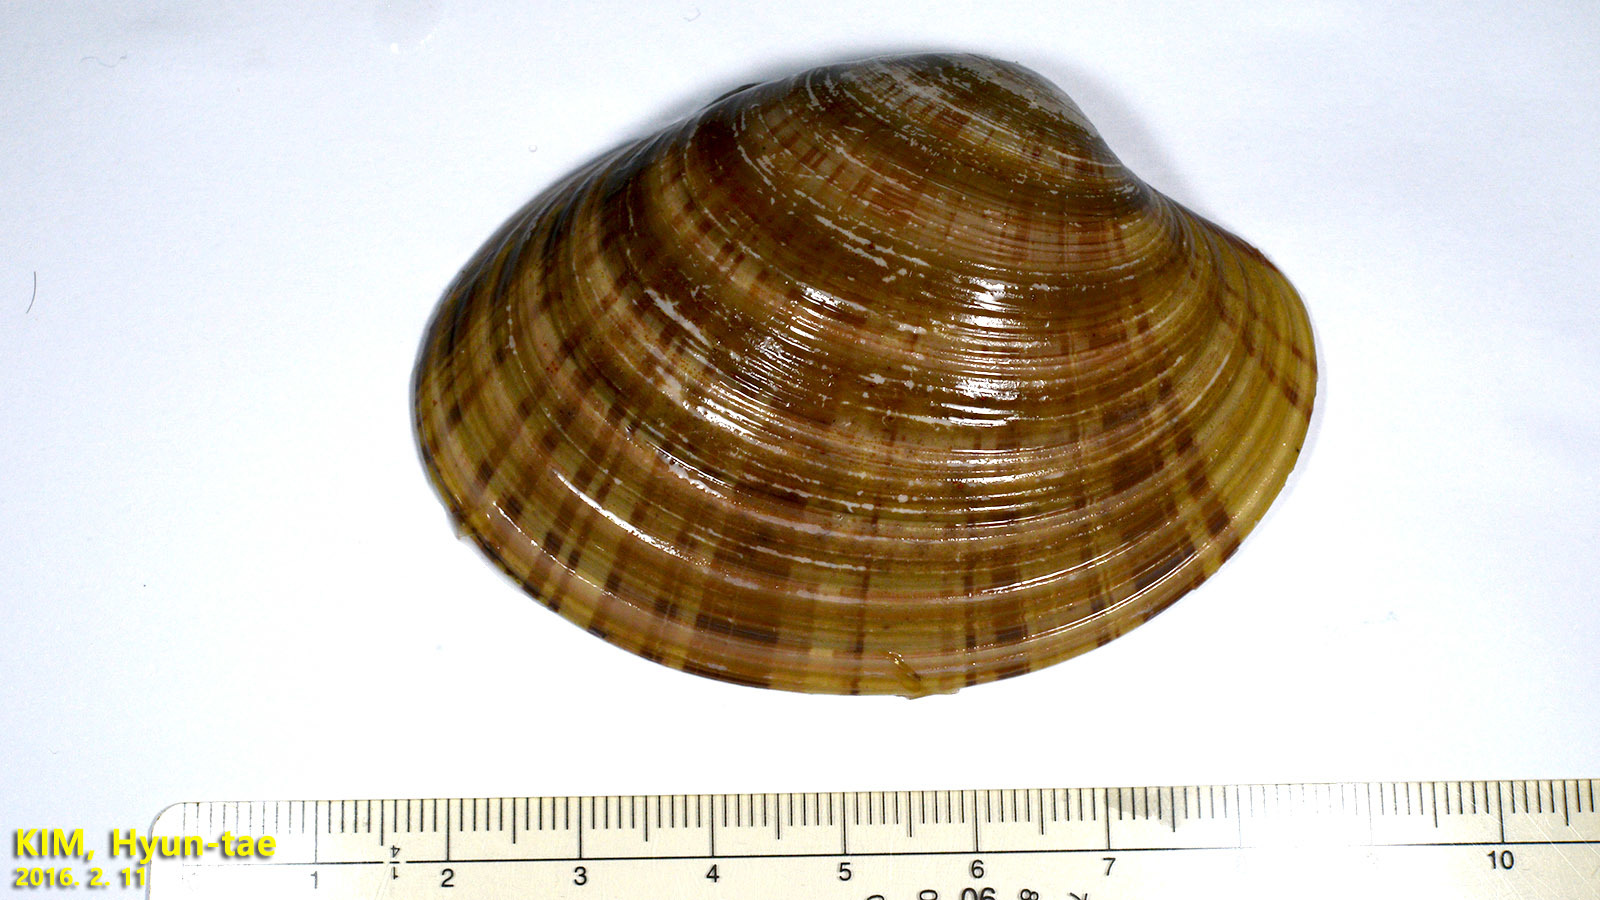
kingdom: Animalia
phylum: Mollusca
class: Bivalvia
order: Venerida
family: Veneridae
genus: Callista
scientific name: Callista chinensis
